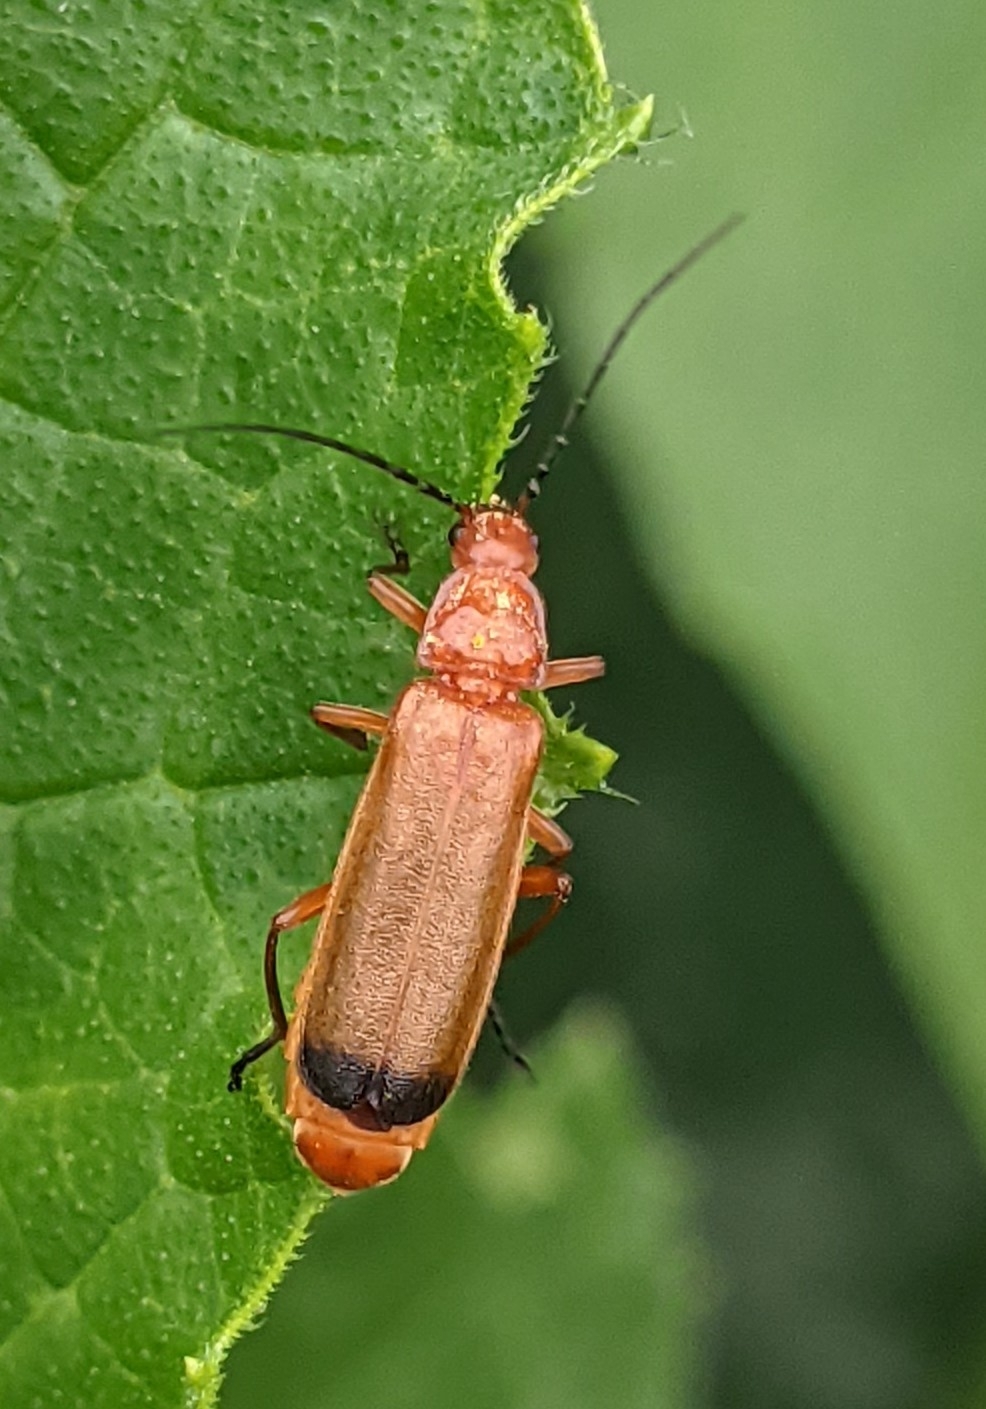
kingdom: Animalia
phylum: Arthropoda
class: Insecta
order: Coleoptera
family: Cantharidae
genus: Rhagonycha
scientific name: Rhagonycha fulva
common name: Common red soldier beetle
